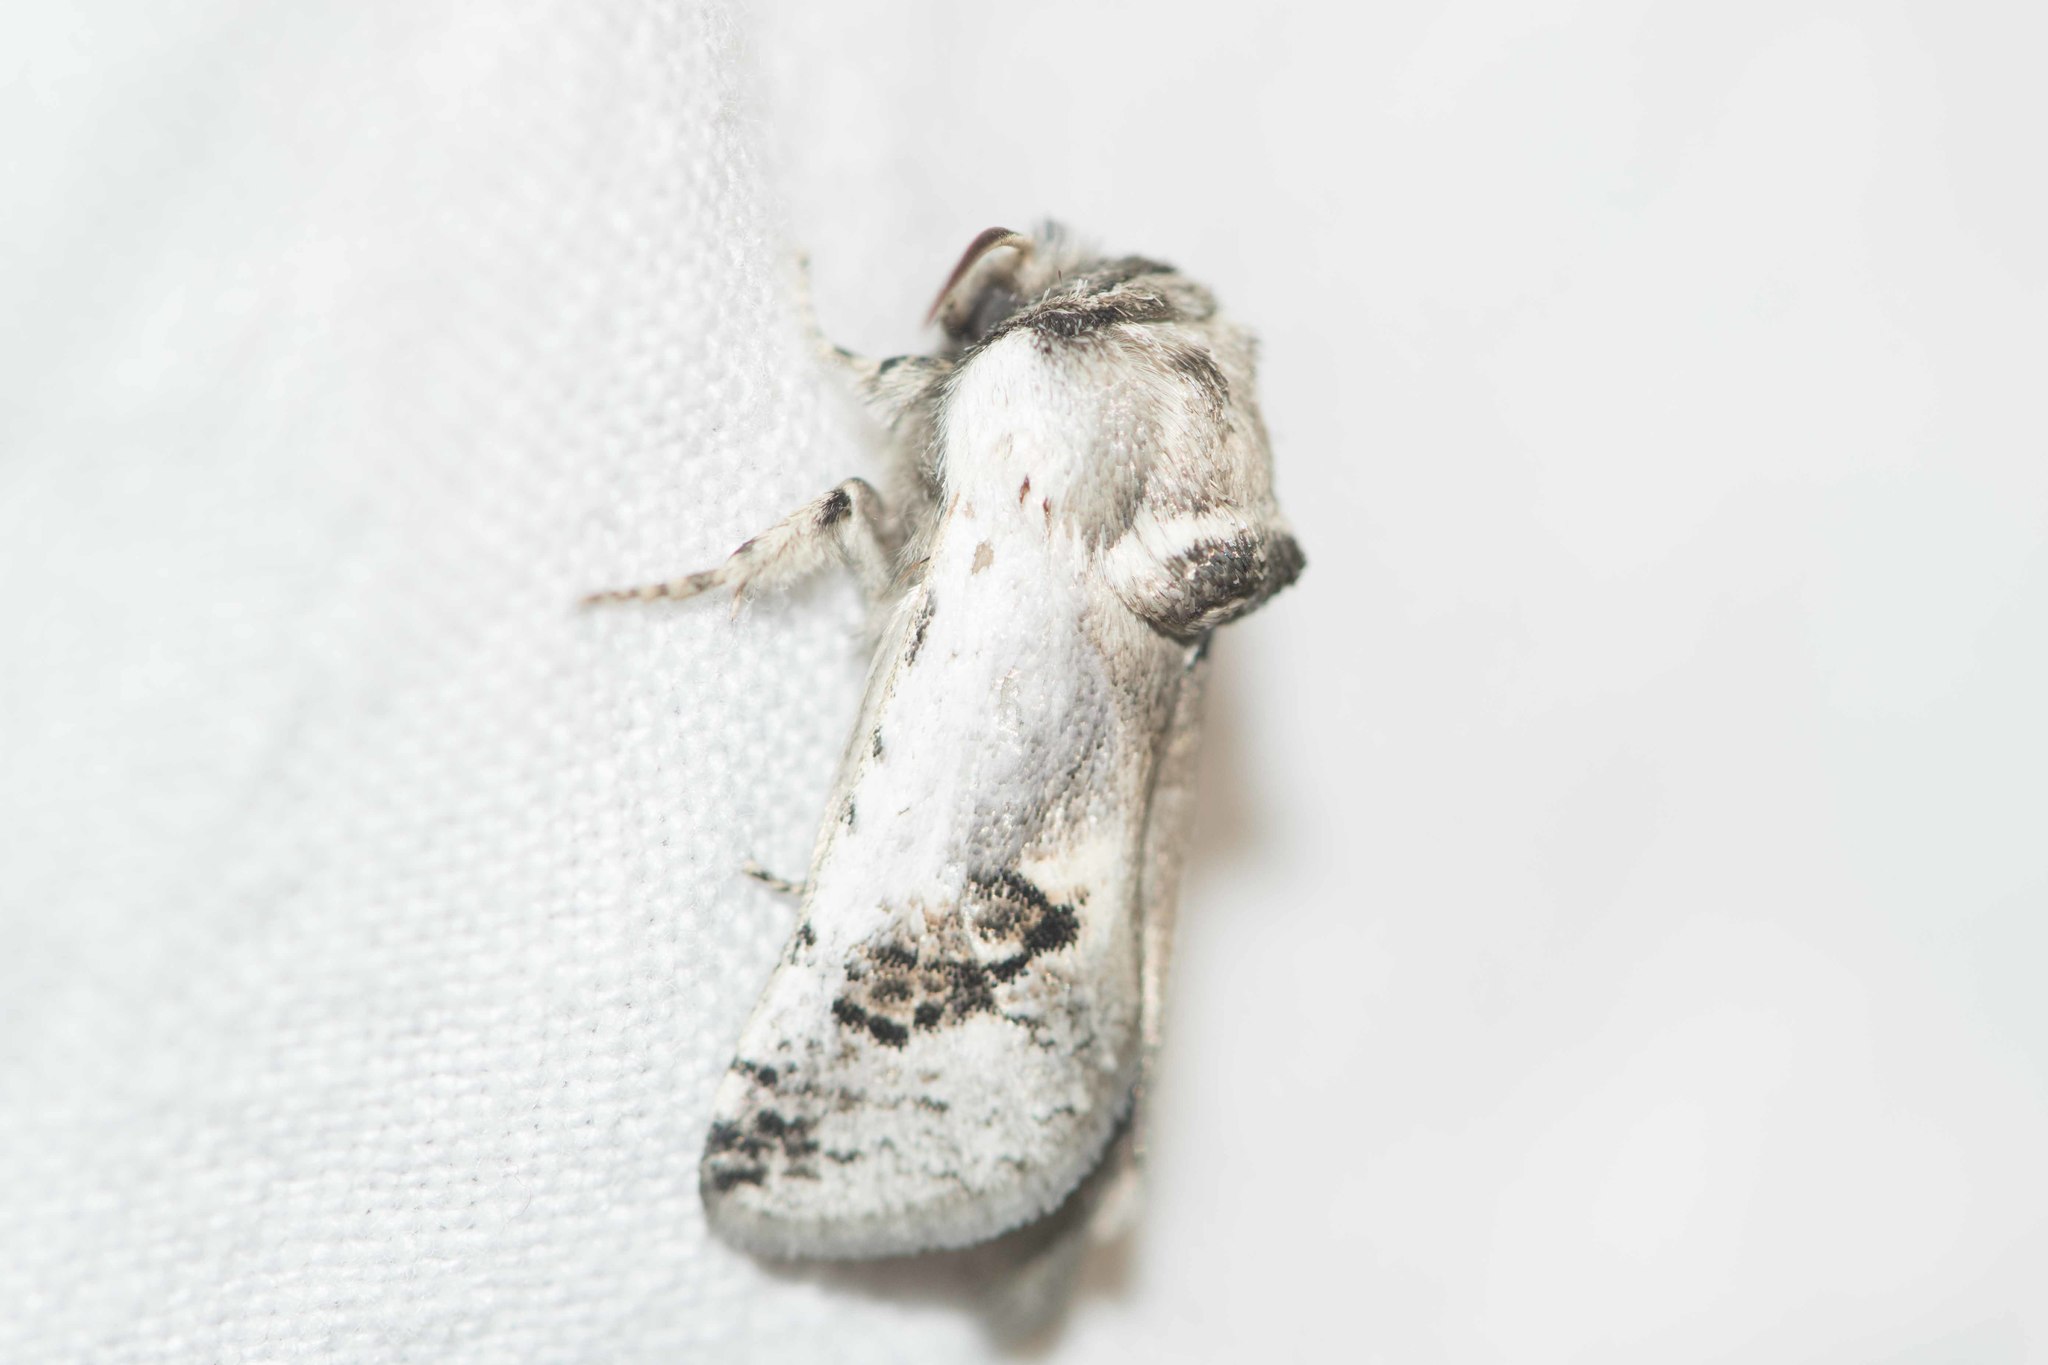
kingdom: Animalia
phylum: Arthropoda
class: Insecta
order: Lepidoptera
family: Cossidae
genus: Parahypopta
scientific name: Parahypopta caestrum
